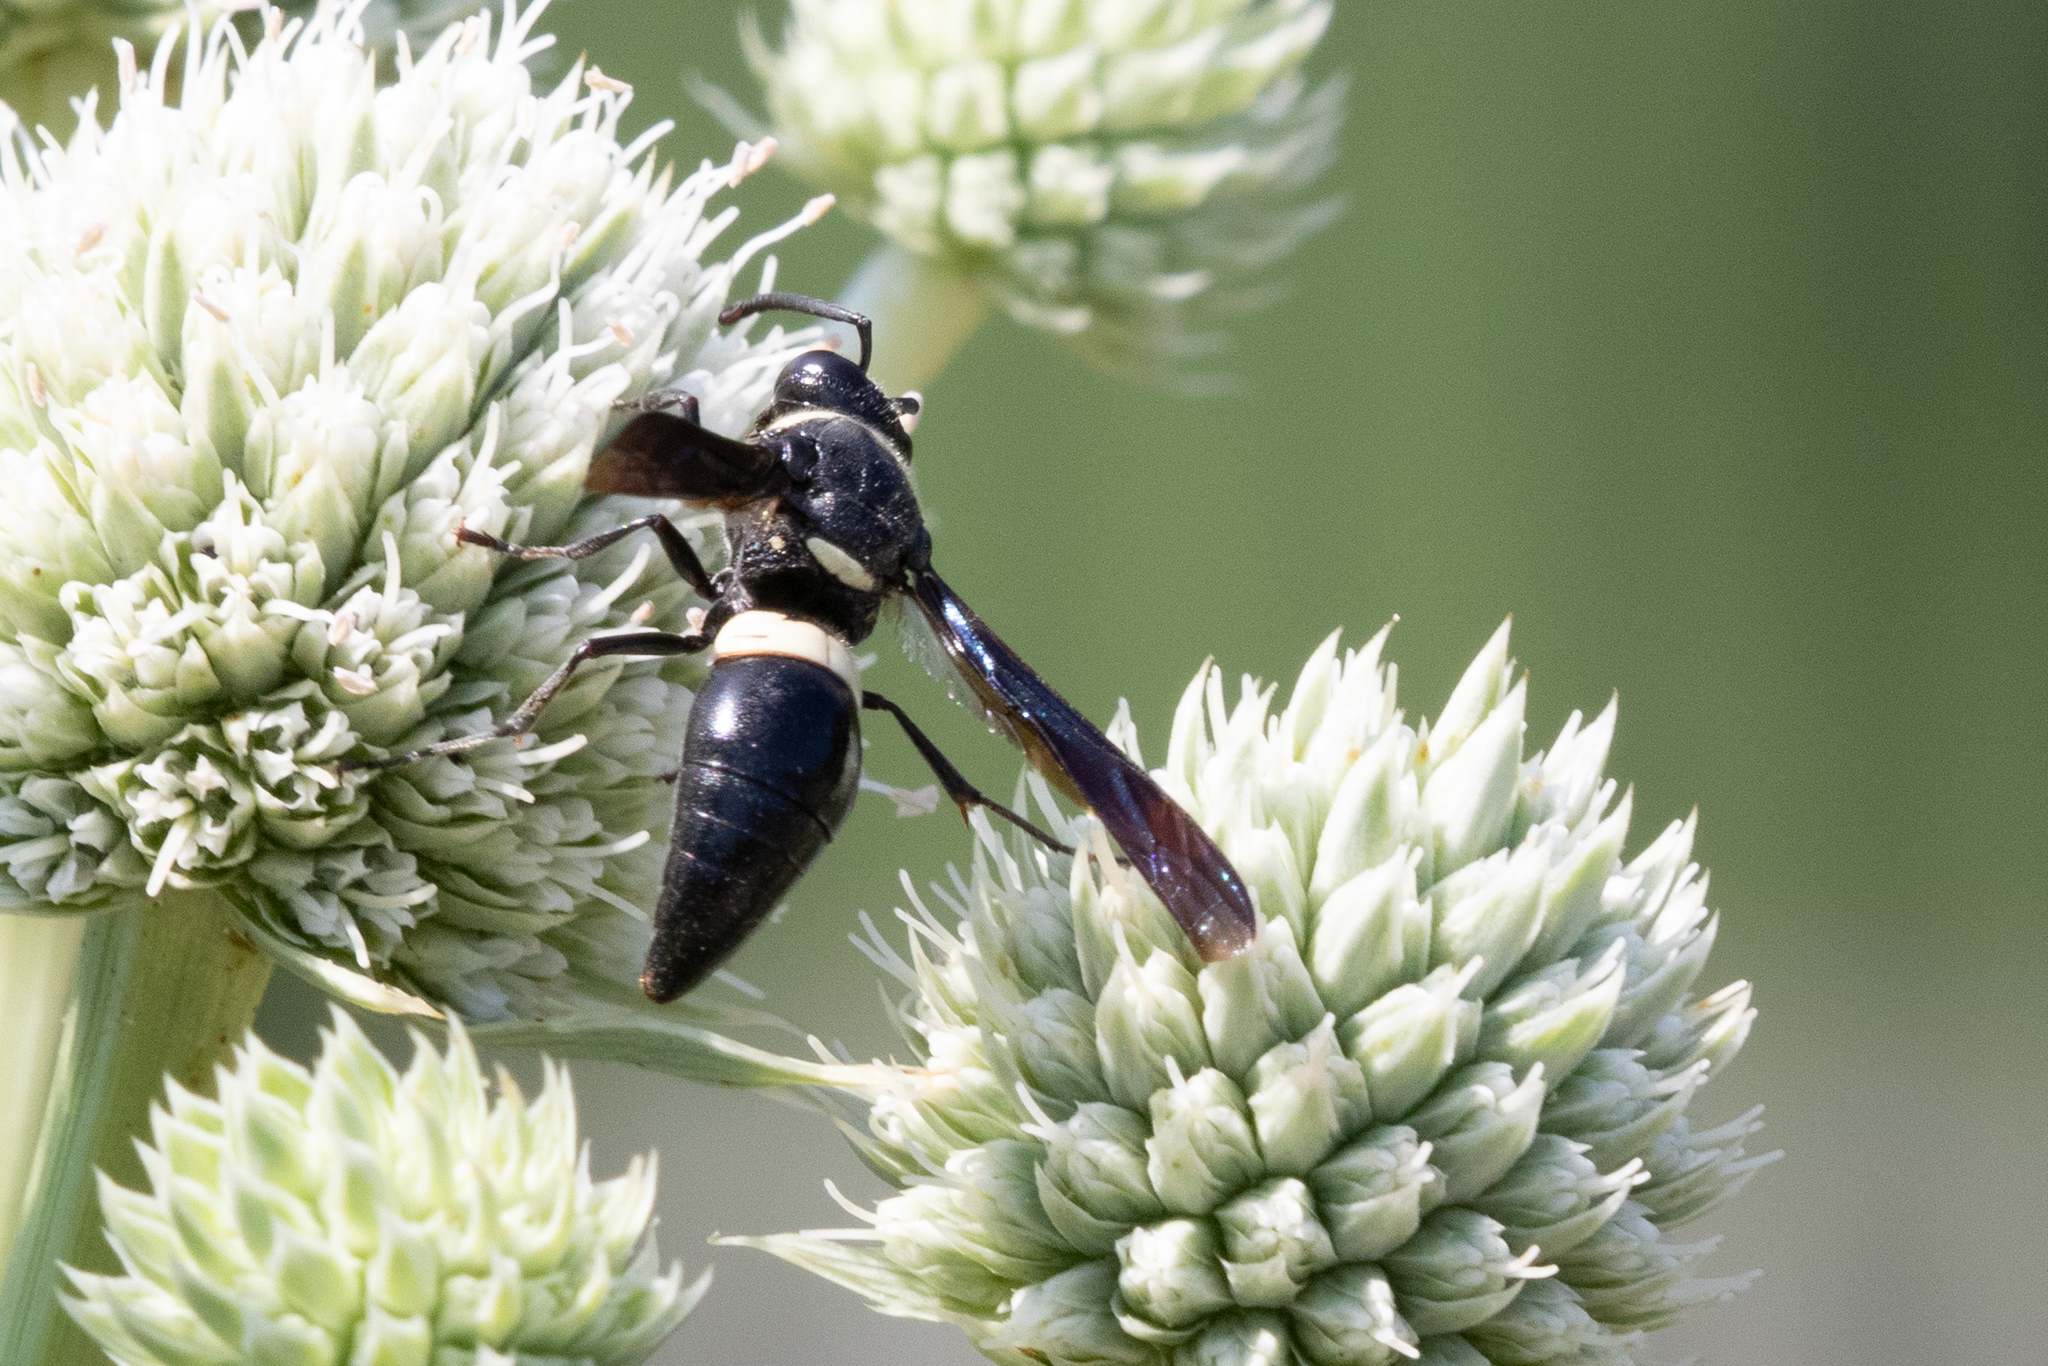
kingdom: Animalia
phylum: Arthropoda
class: Insecta
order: Hymenoptera
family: Eumenidae
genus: Monobia
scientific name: Monobia quadridens
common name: Four-toothed mason wasp
